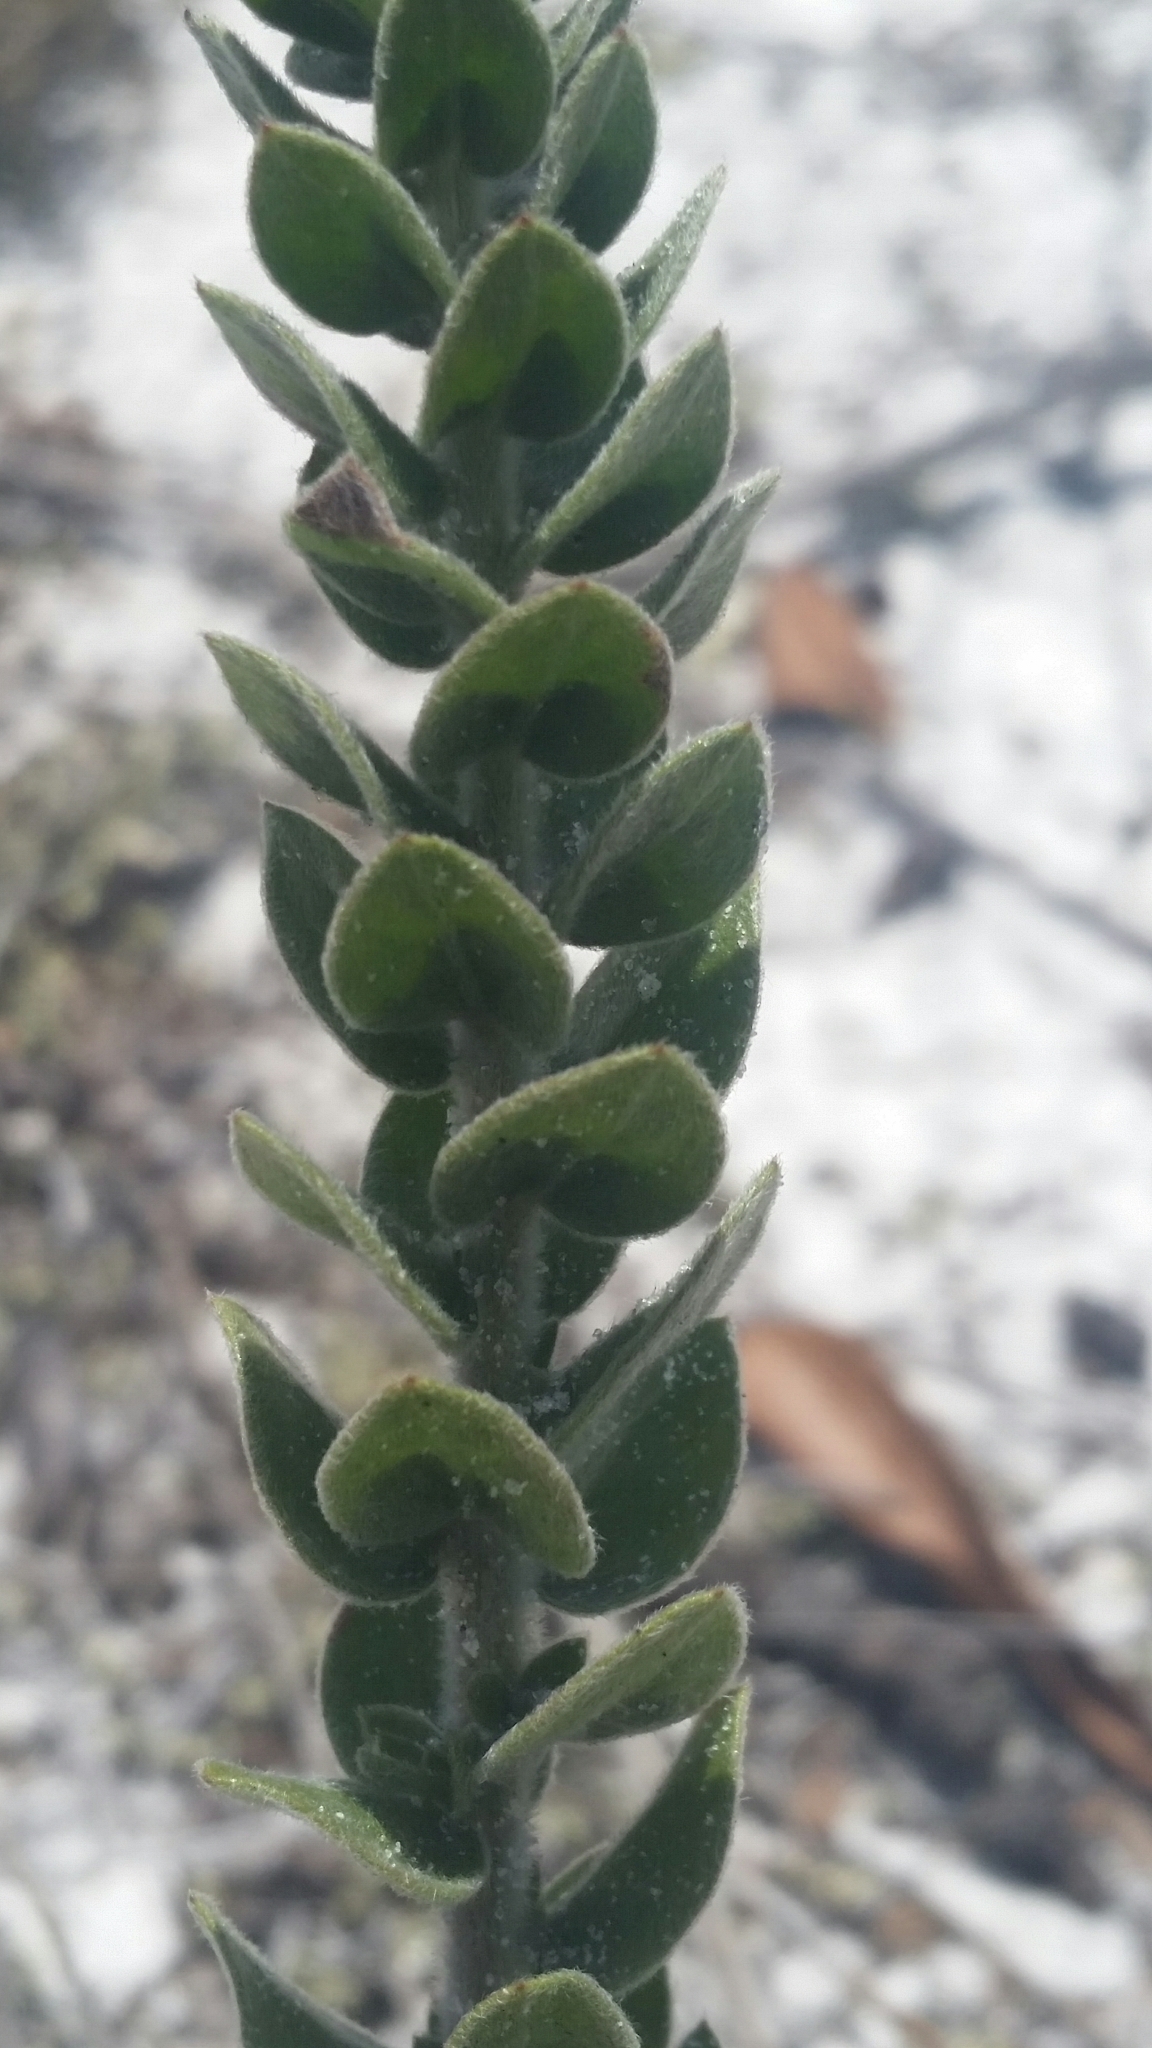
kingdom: Plantae
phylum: Tracheophyta
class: Magnoliopsida
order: Malvales
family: Cistaceae
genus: Lechea
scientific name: Lechea cernua
